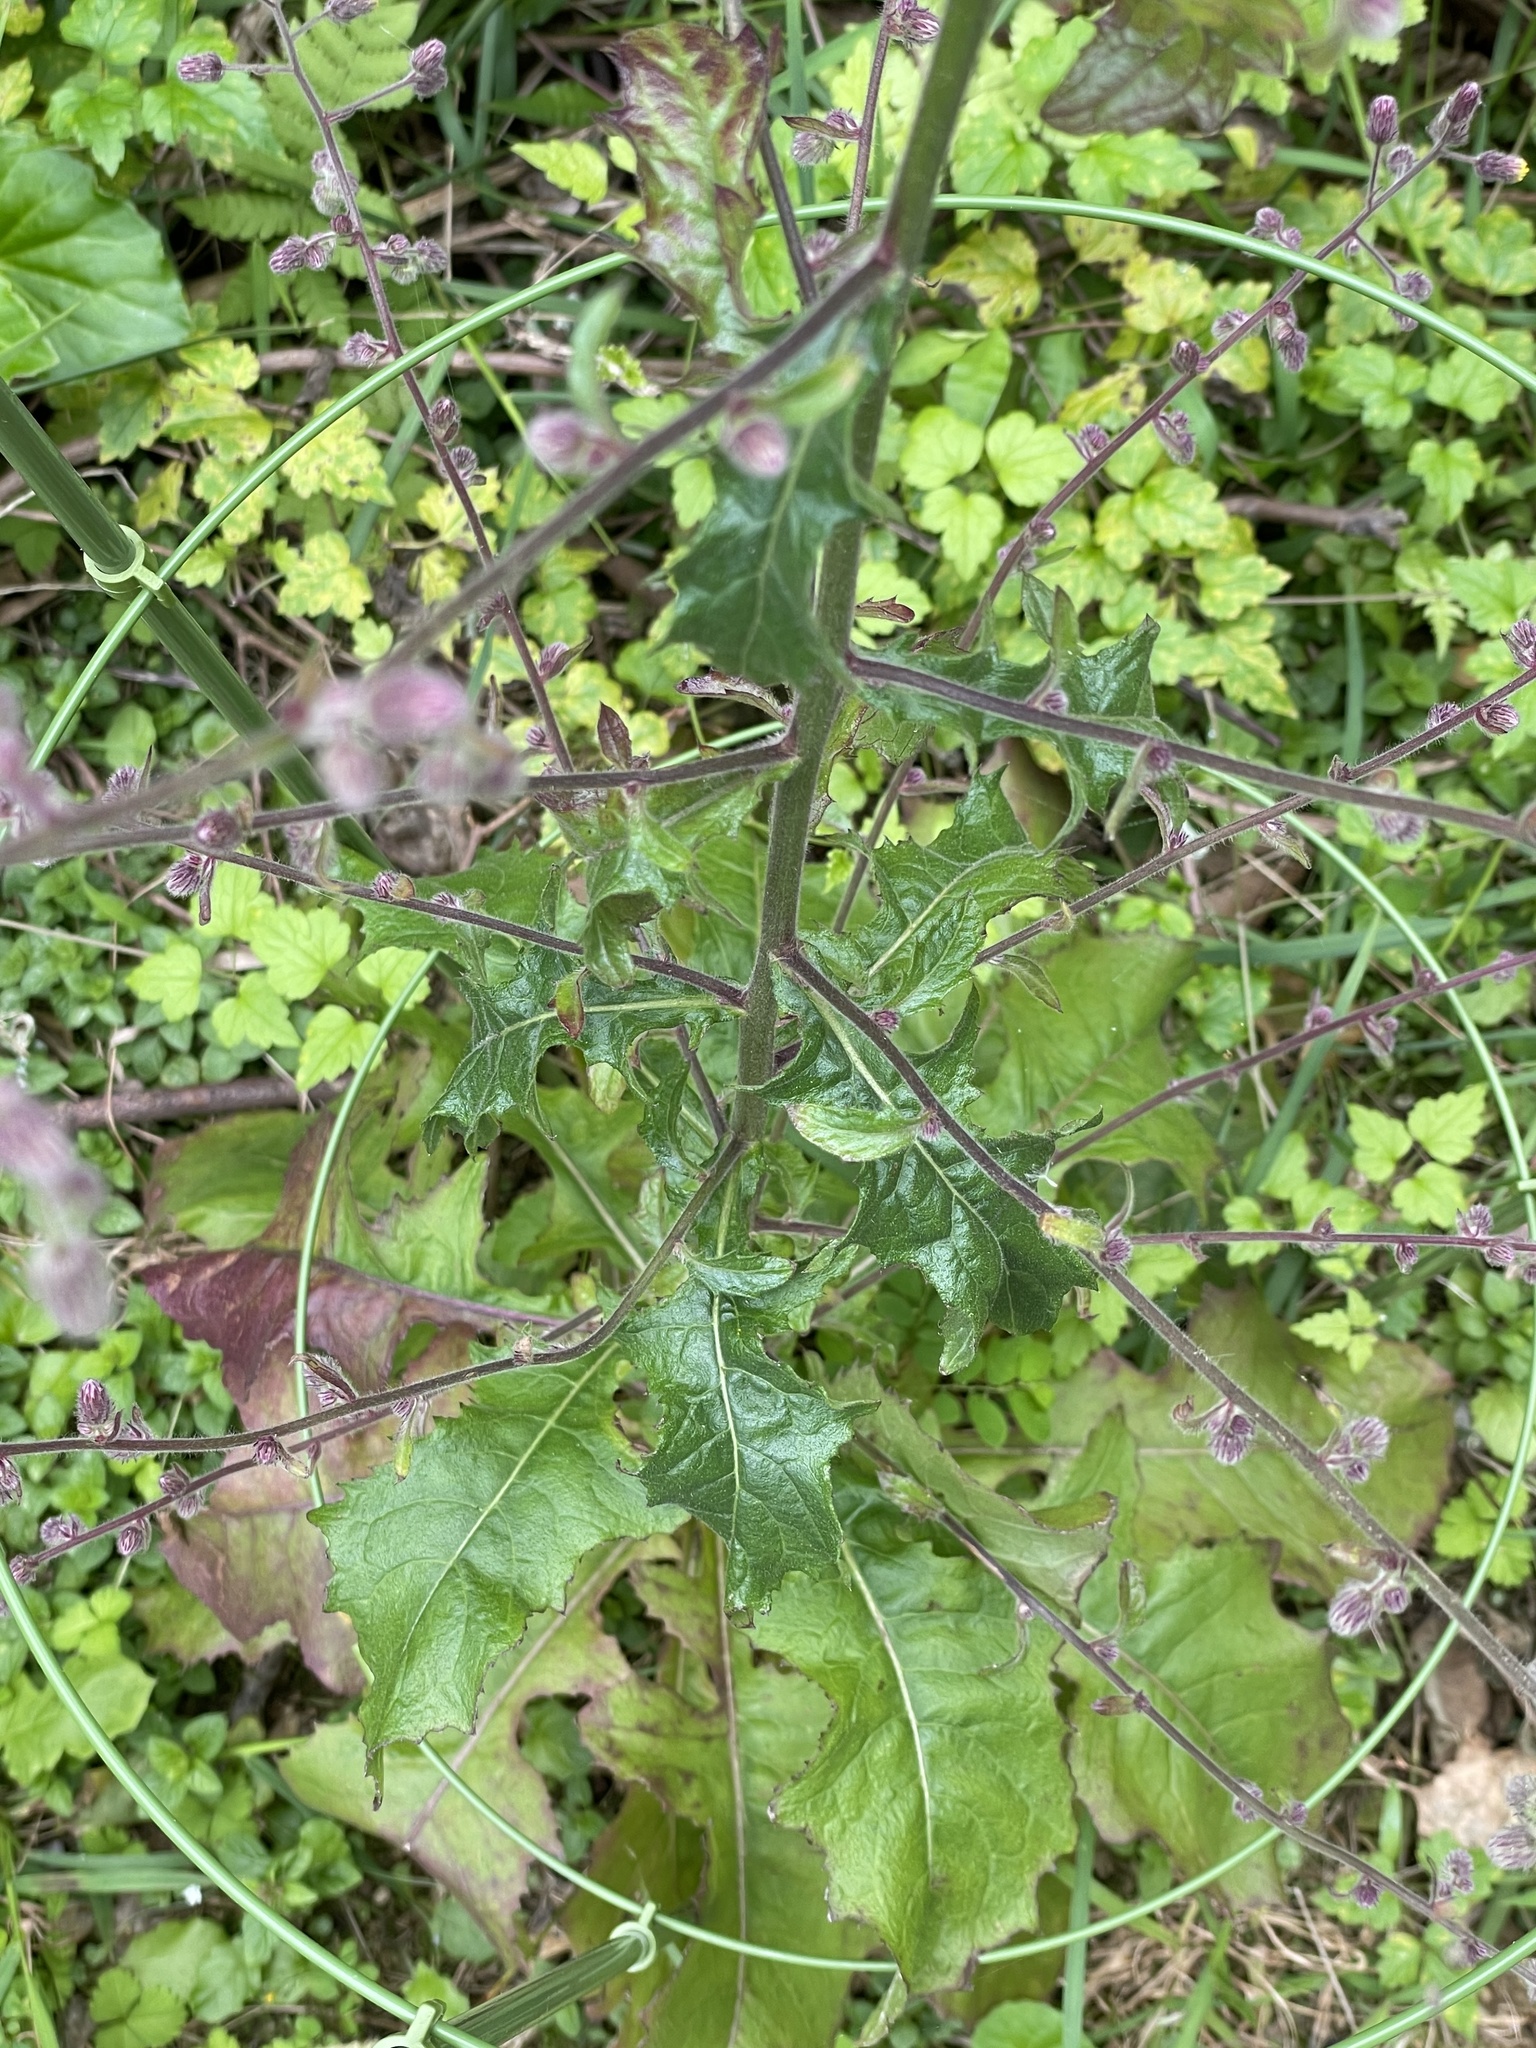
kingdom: Plantae
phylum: Tracheophyta
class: Magnoliopsida
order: Asterales
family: Asteraceae
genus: Blumea
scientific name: Blumea sinuata
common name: Cutleaf false oxtongue
